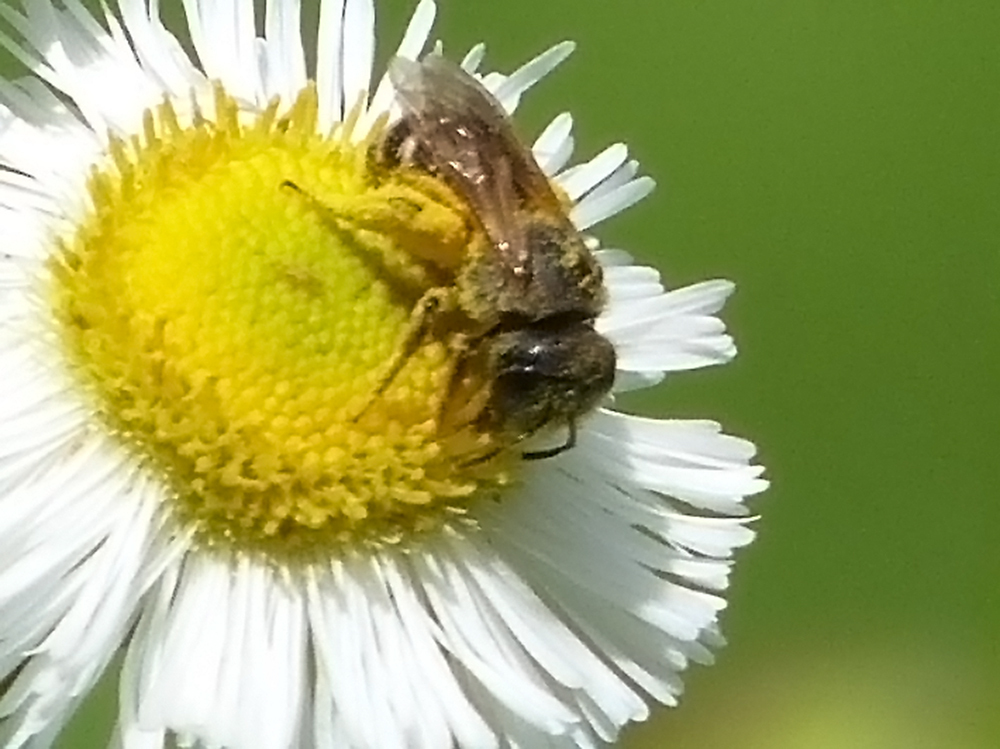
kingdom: Animalia
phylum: Arthropoda
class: Insecta
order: Hymenoptera
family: Halictidae
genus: Halictus
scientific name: Halictus ligatus
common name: Ligated furrow bee
